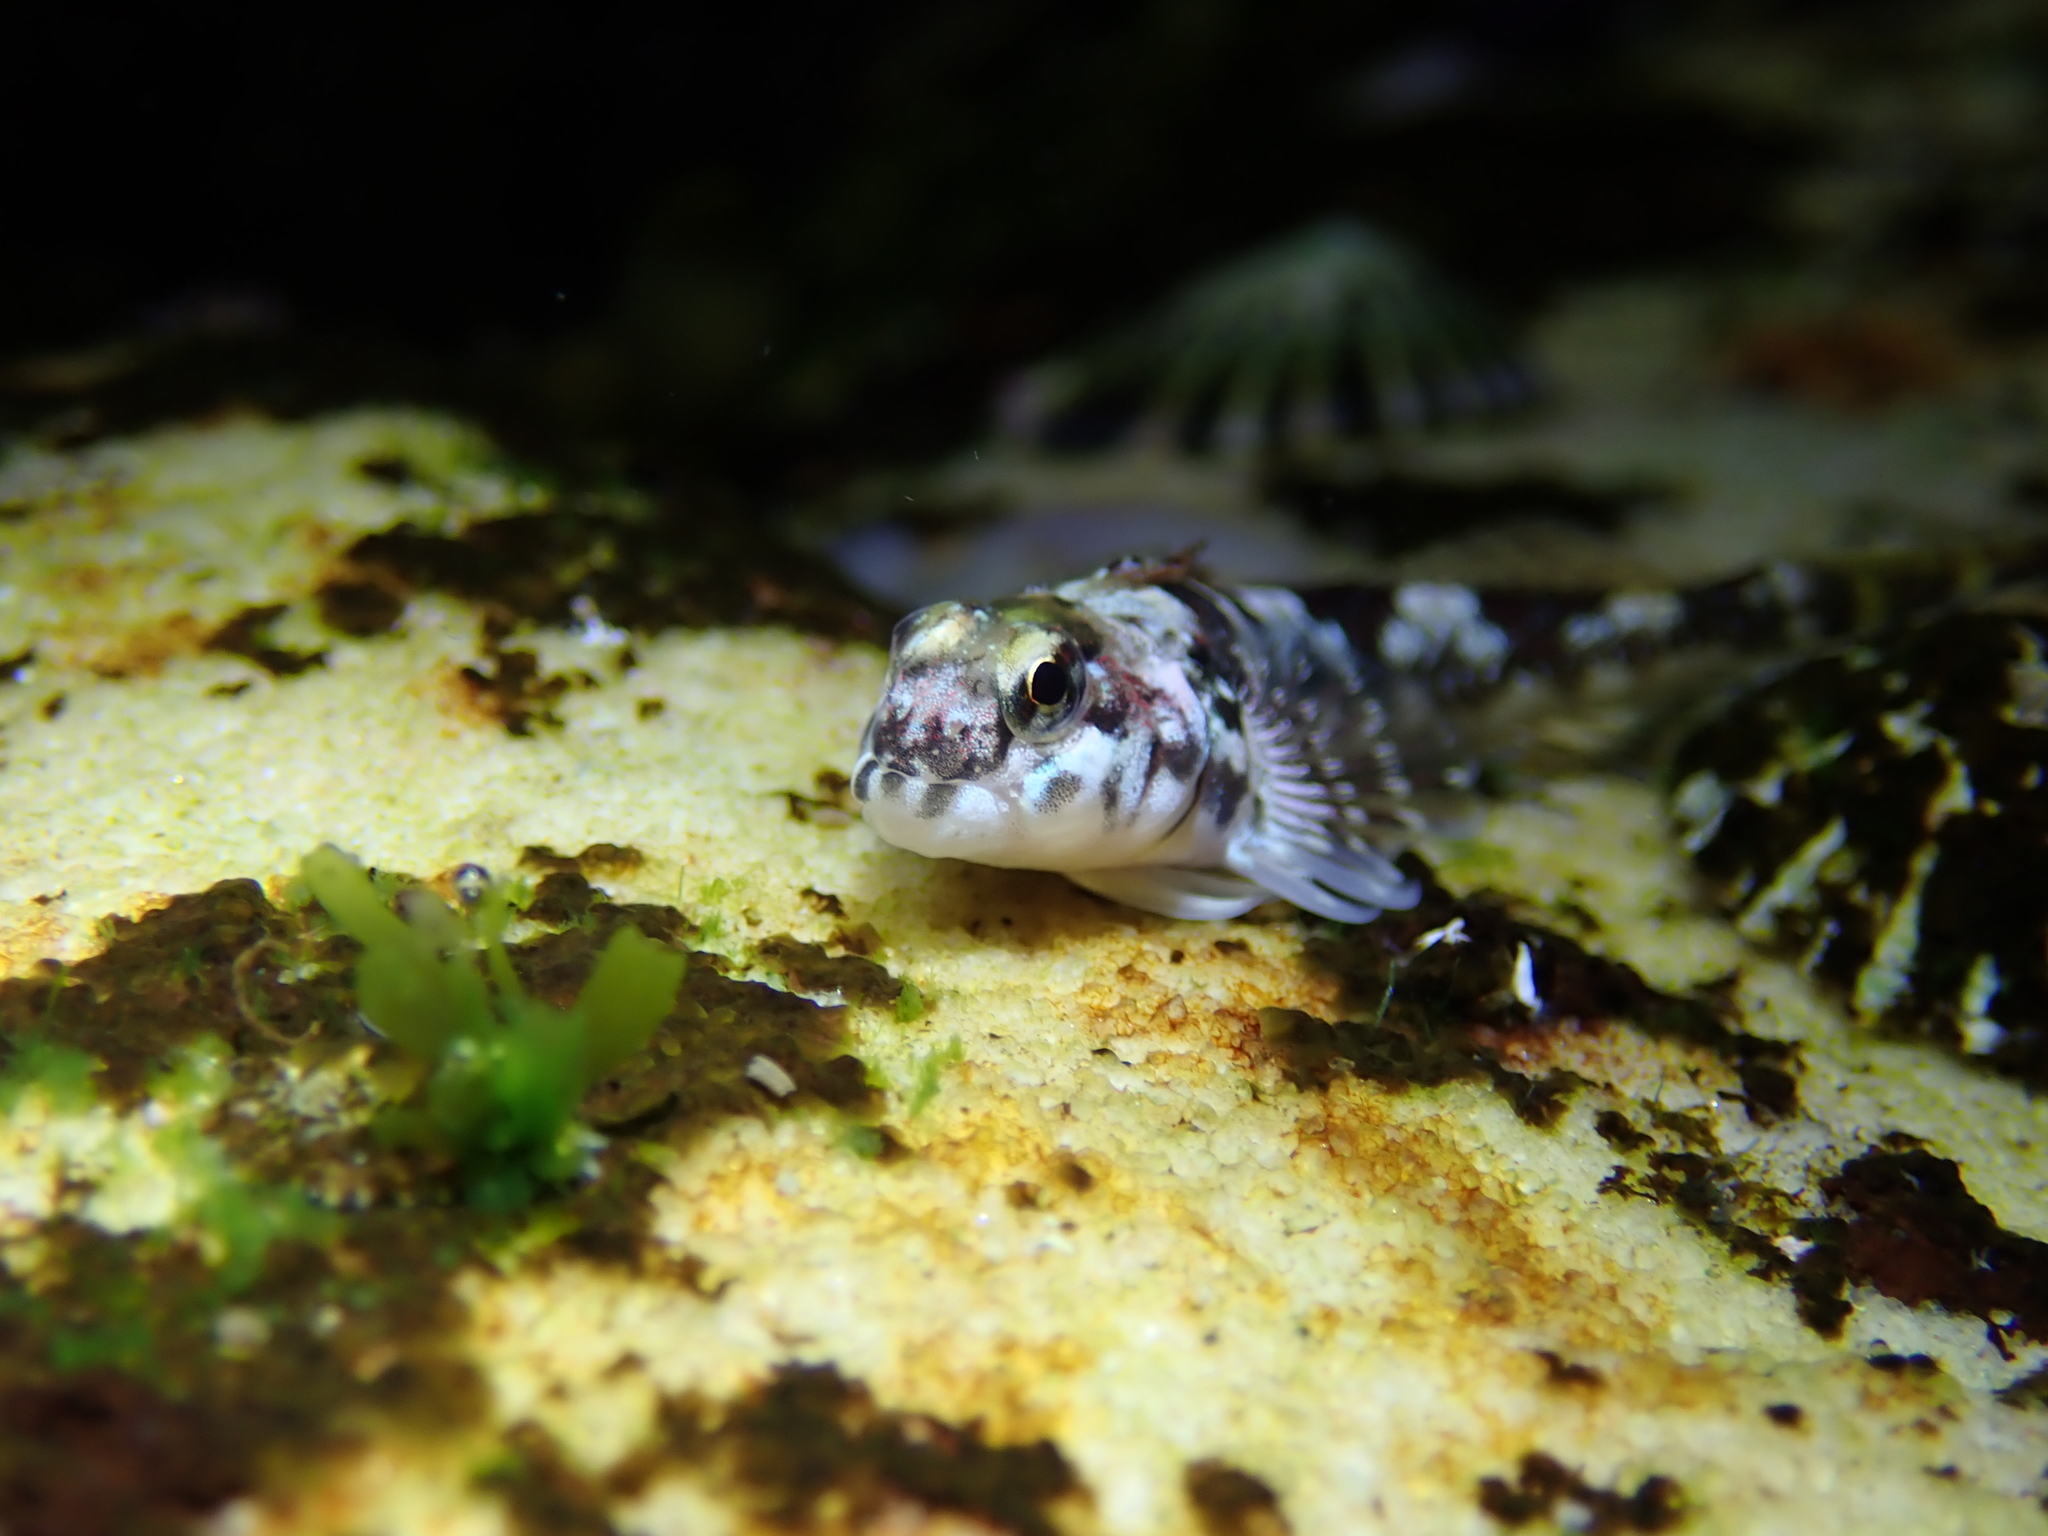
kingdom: Animalia
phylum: Chordata
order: Perciformes
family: Tripterygiidae
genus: Lepidoblennius
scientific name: Lepidoblennius haplodactylus
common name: Eastern jumping blenny
